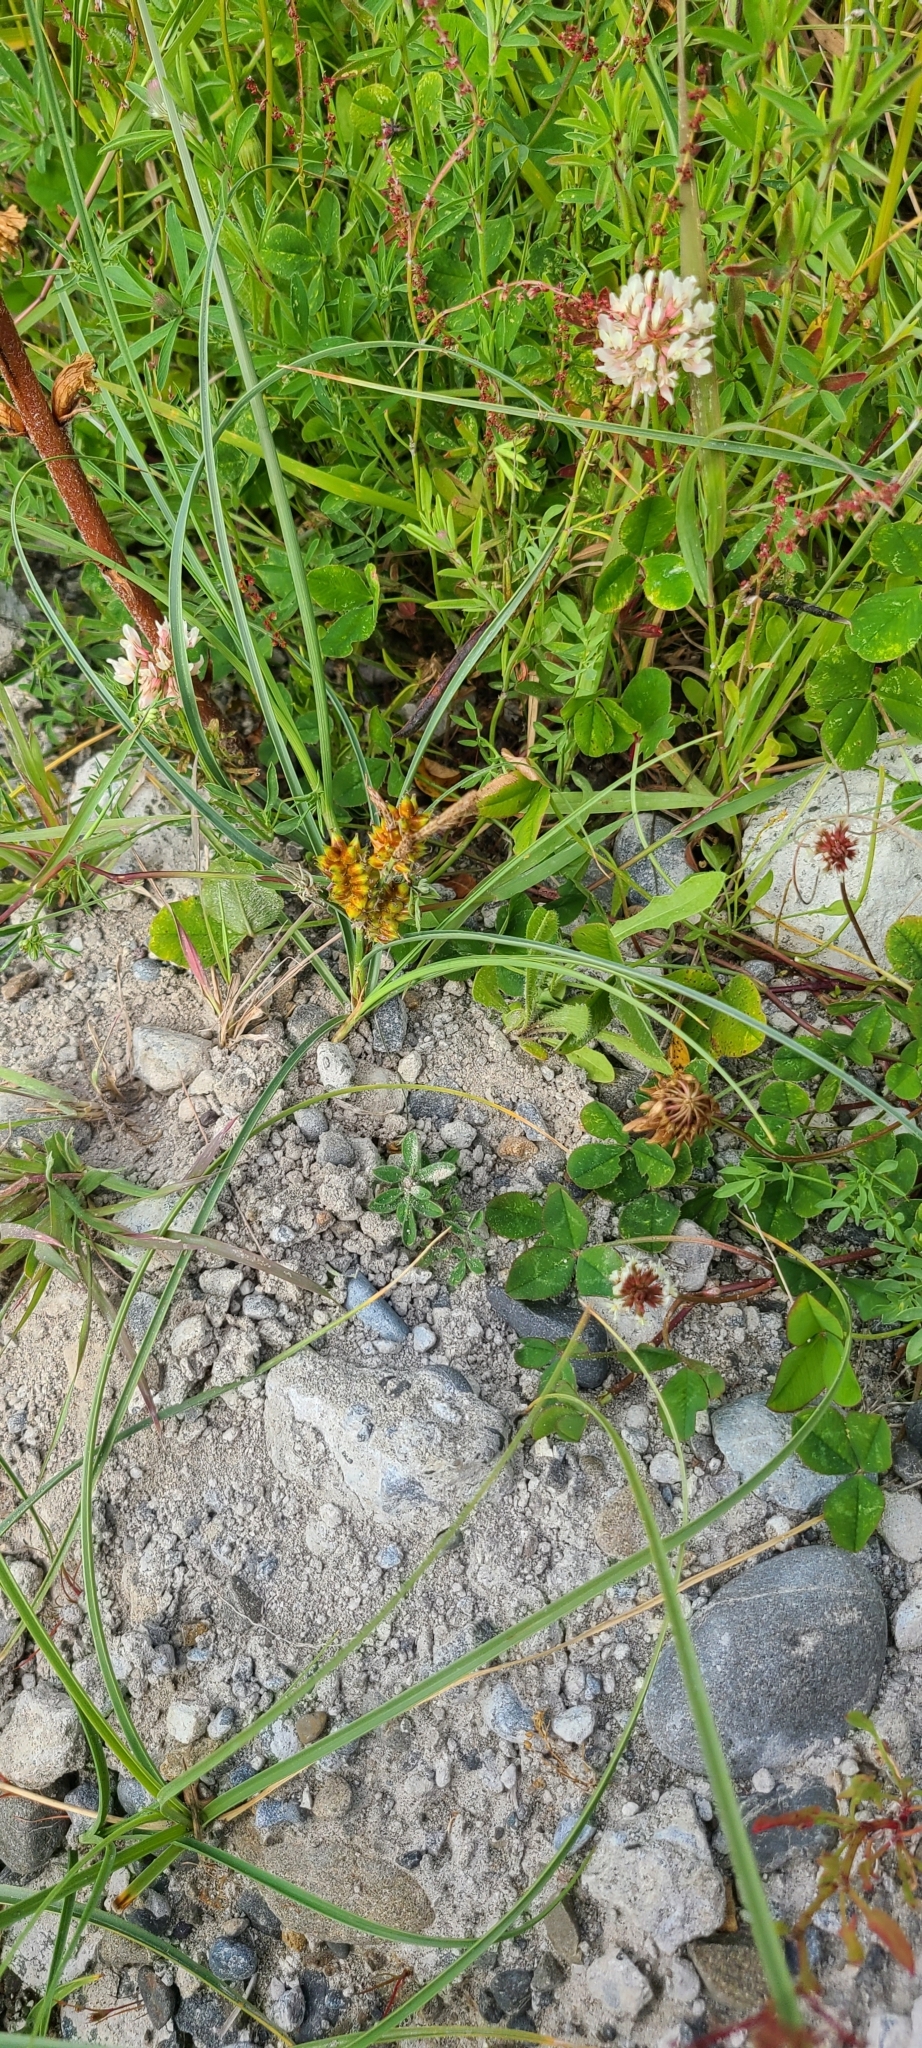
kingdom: Plantae
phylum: Tracheophyta
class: Liliopsida
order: Poales
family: Cyperaceae
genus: Carex
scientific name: Carex pumila
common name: Dwarf sedge
